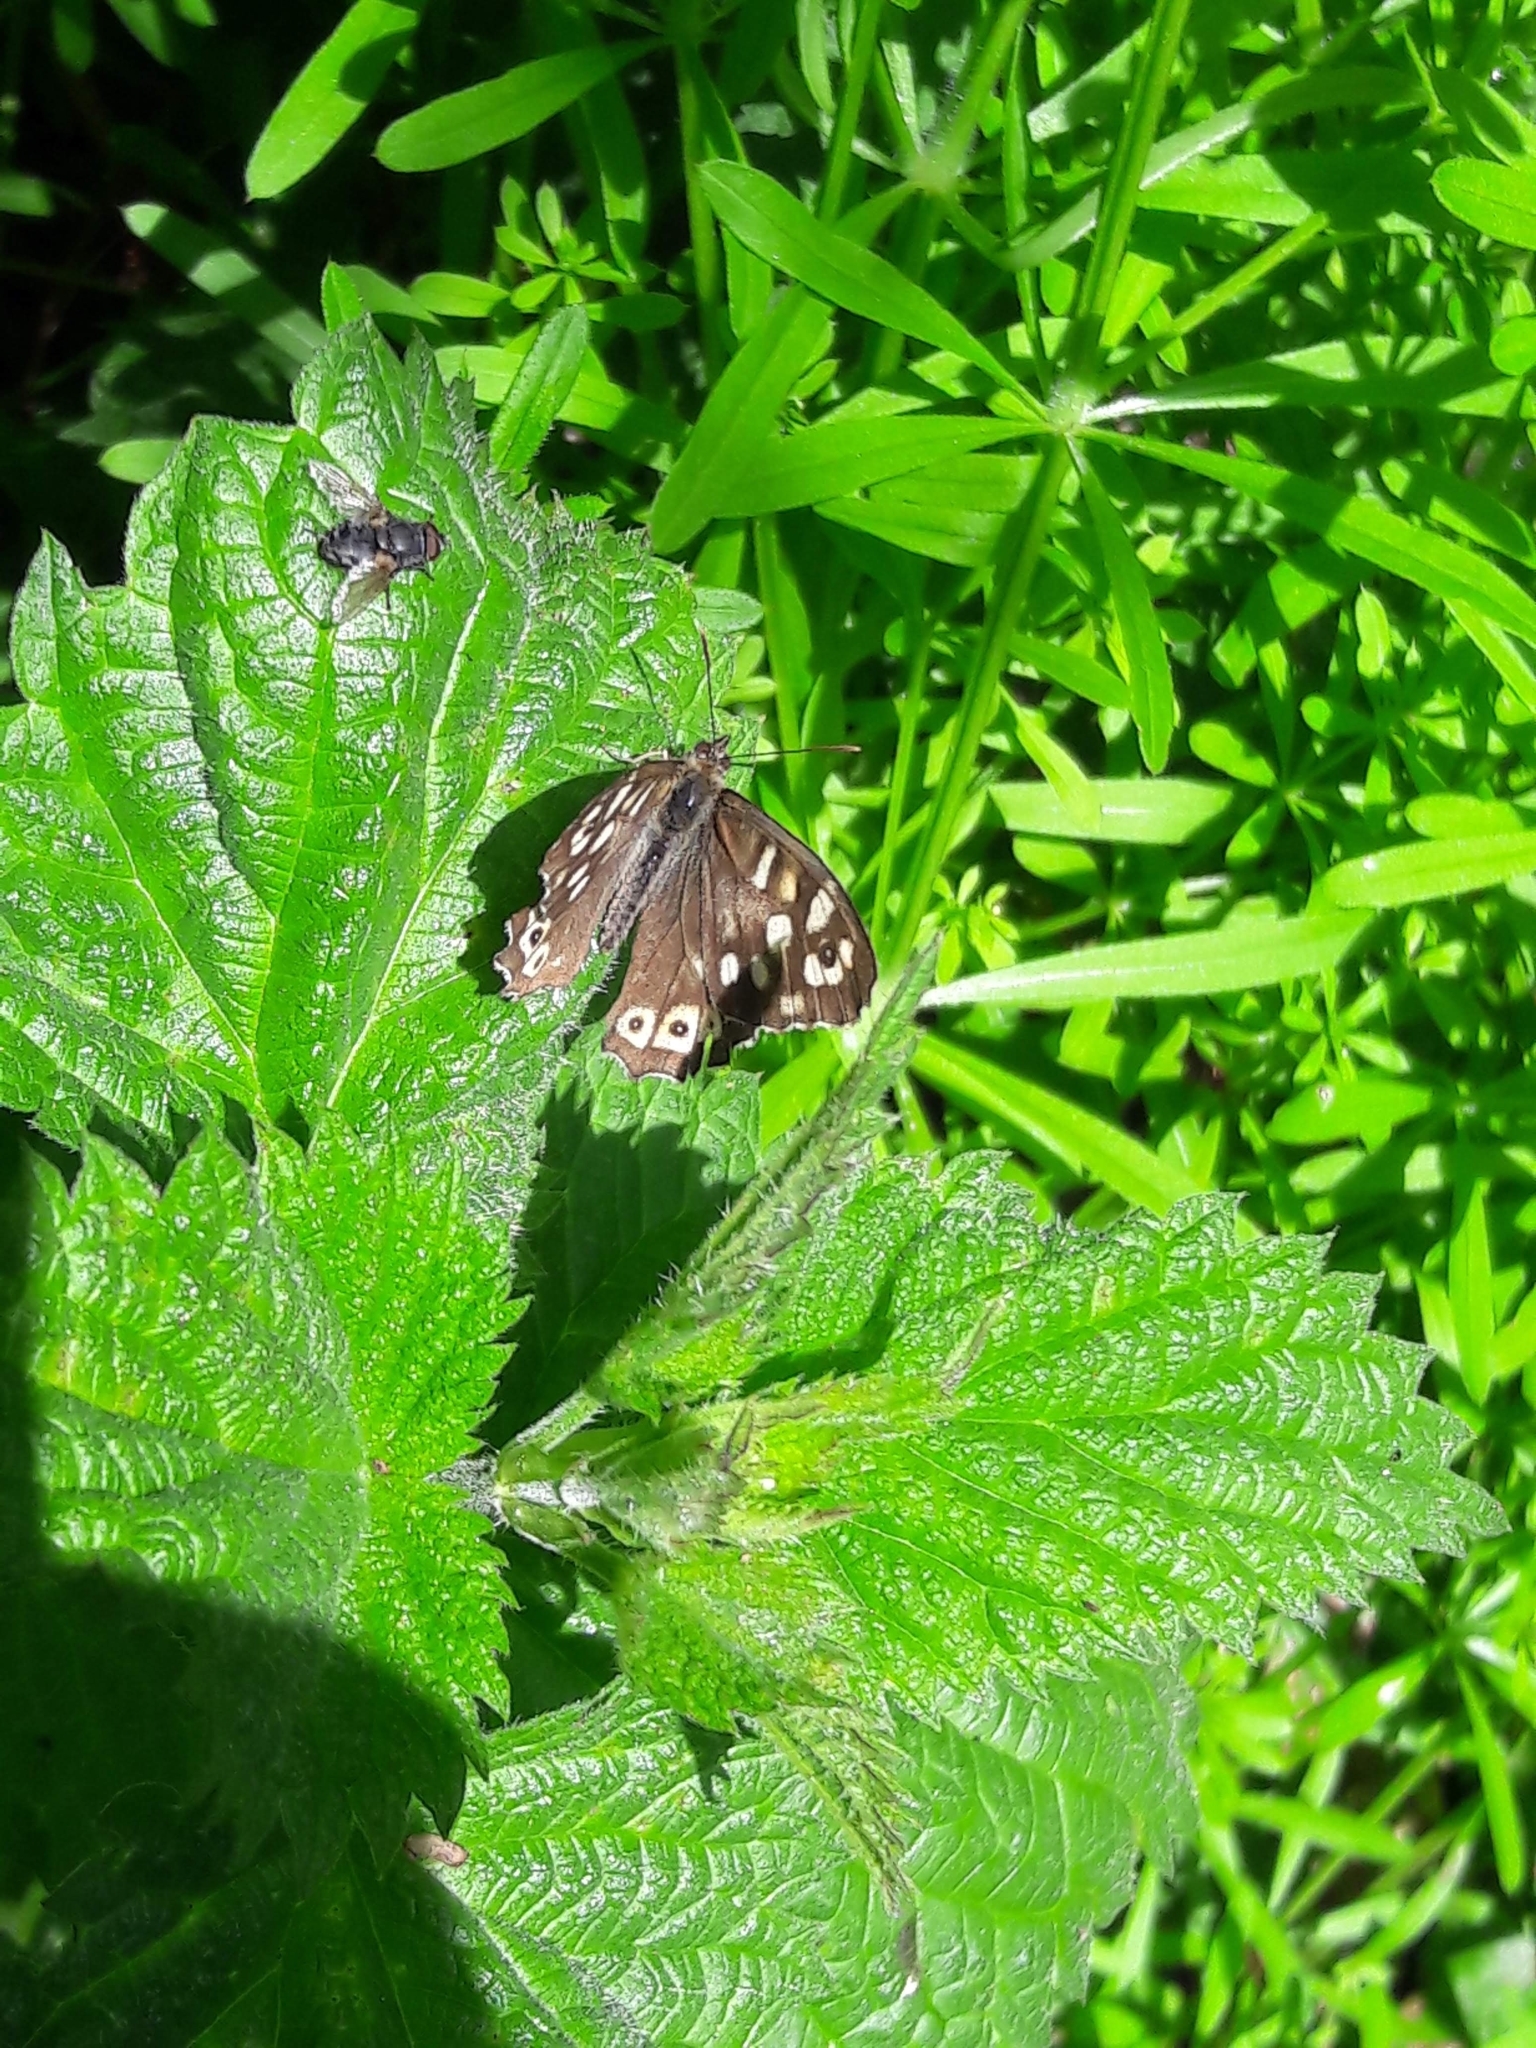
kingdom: Animalia
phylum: Arthropoda
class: Insecta
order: Lepidoptera
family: Nymphalidae
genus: Pararge
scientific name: Pararge aegeria
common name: Speckled wood
